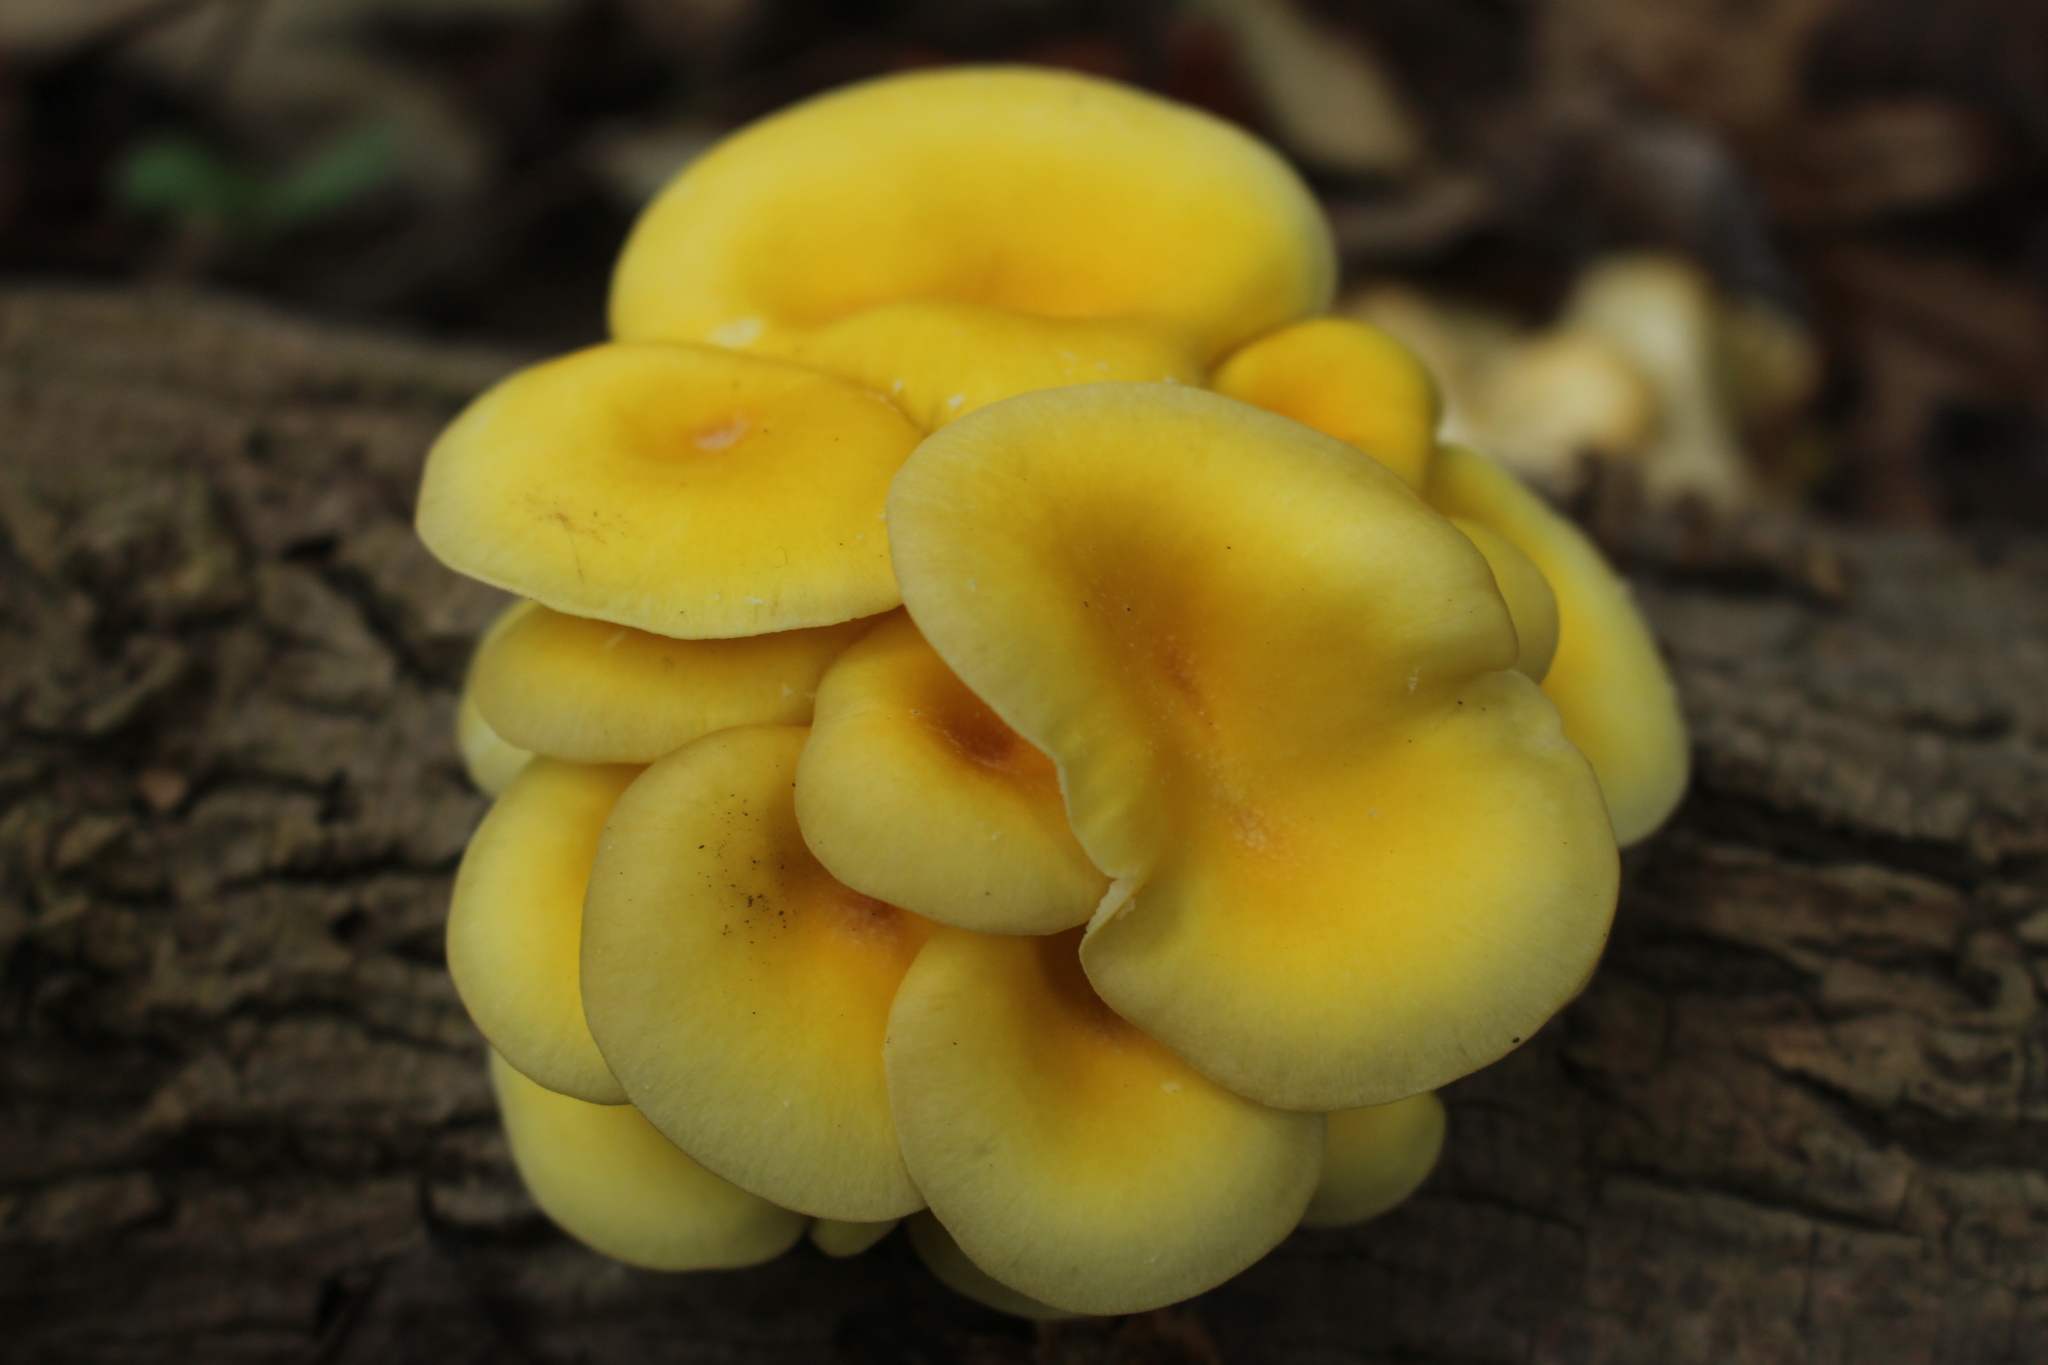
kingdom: Fungi
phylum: Basidiomycota
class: Agaricomycetes
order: Agaricales
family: Pleurotaceae
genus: Pleurotus
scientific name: Pleurotus citrinopileatus
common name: Golden oyster mushroom
